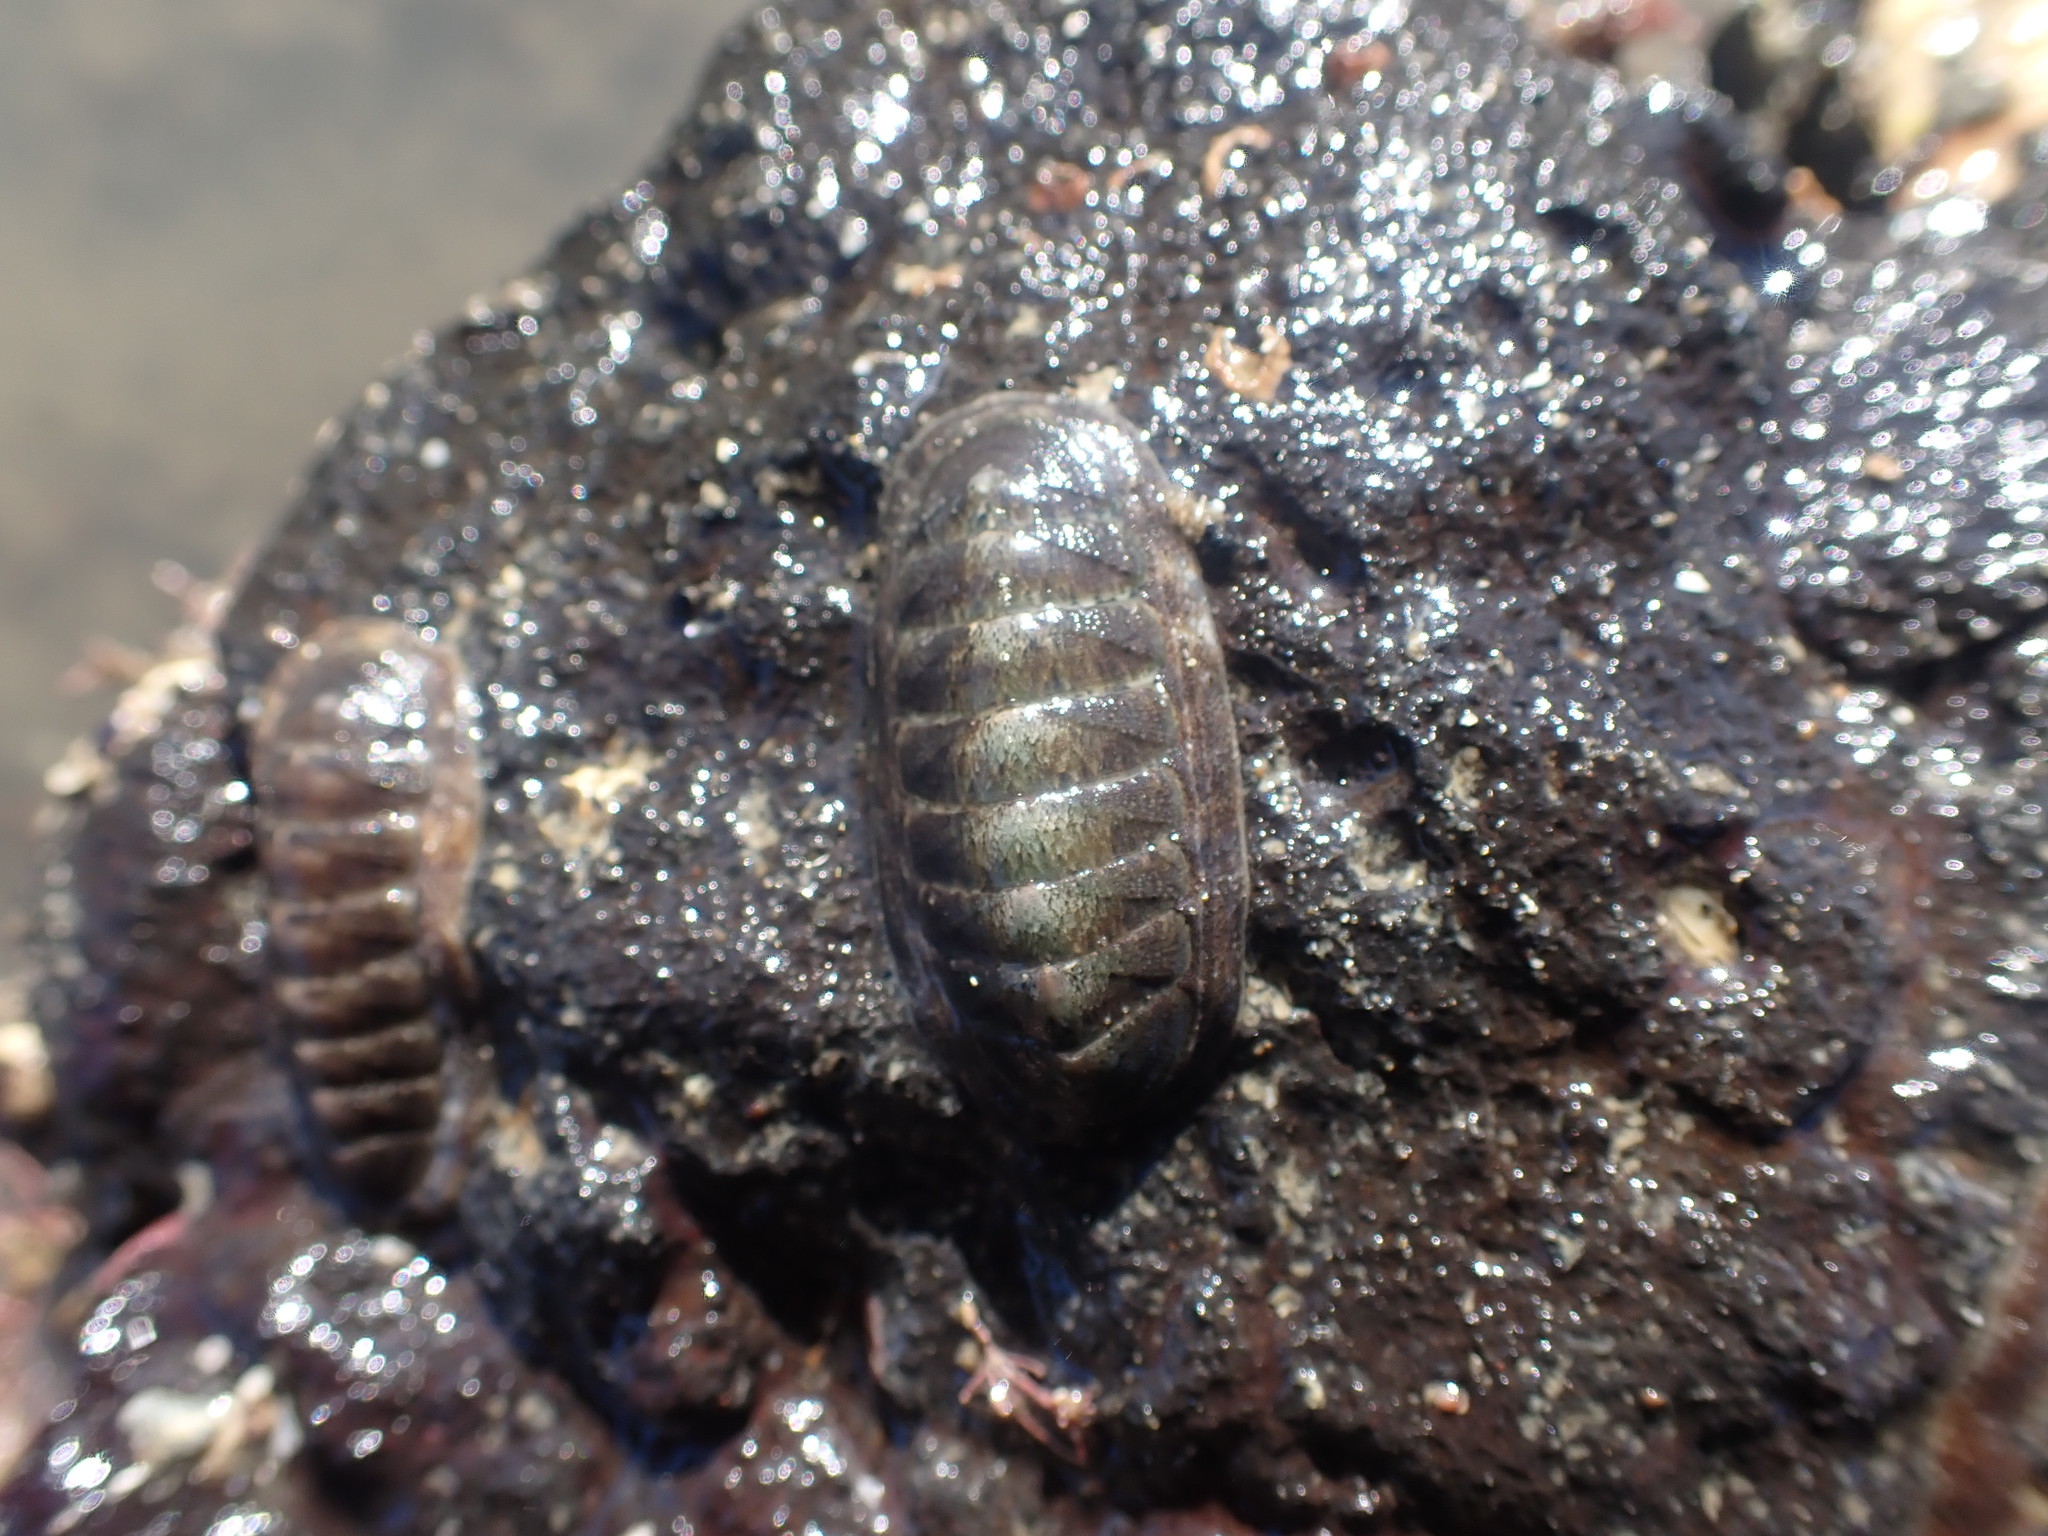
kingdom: Animalia
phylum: Mollusca
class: Polyplacophora
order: Chitonida
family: Ischnochitonidae
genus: Ischnochiton
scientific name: Ischnochiton maorianus
